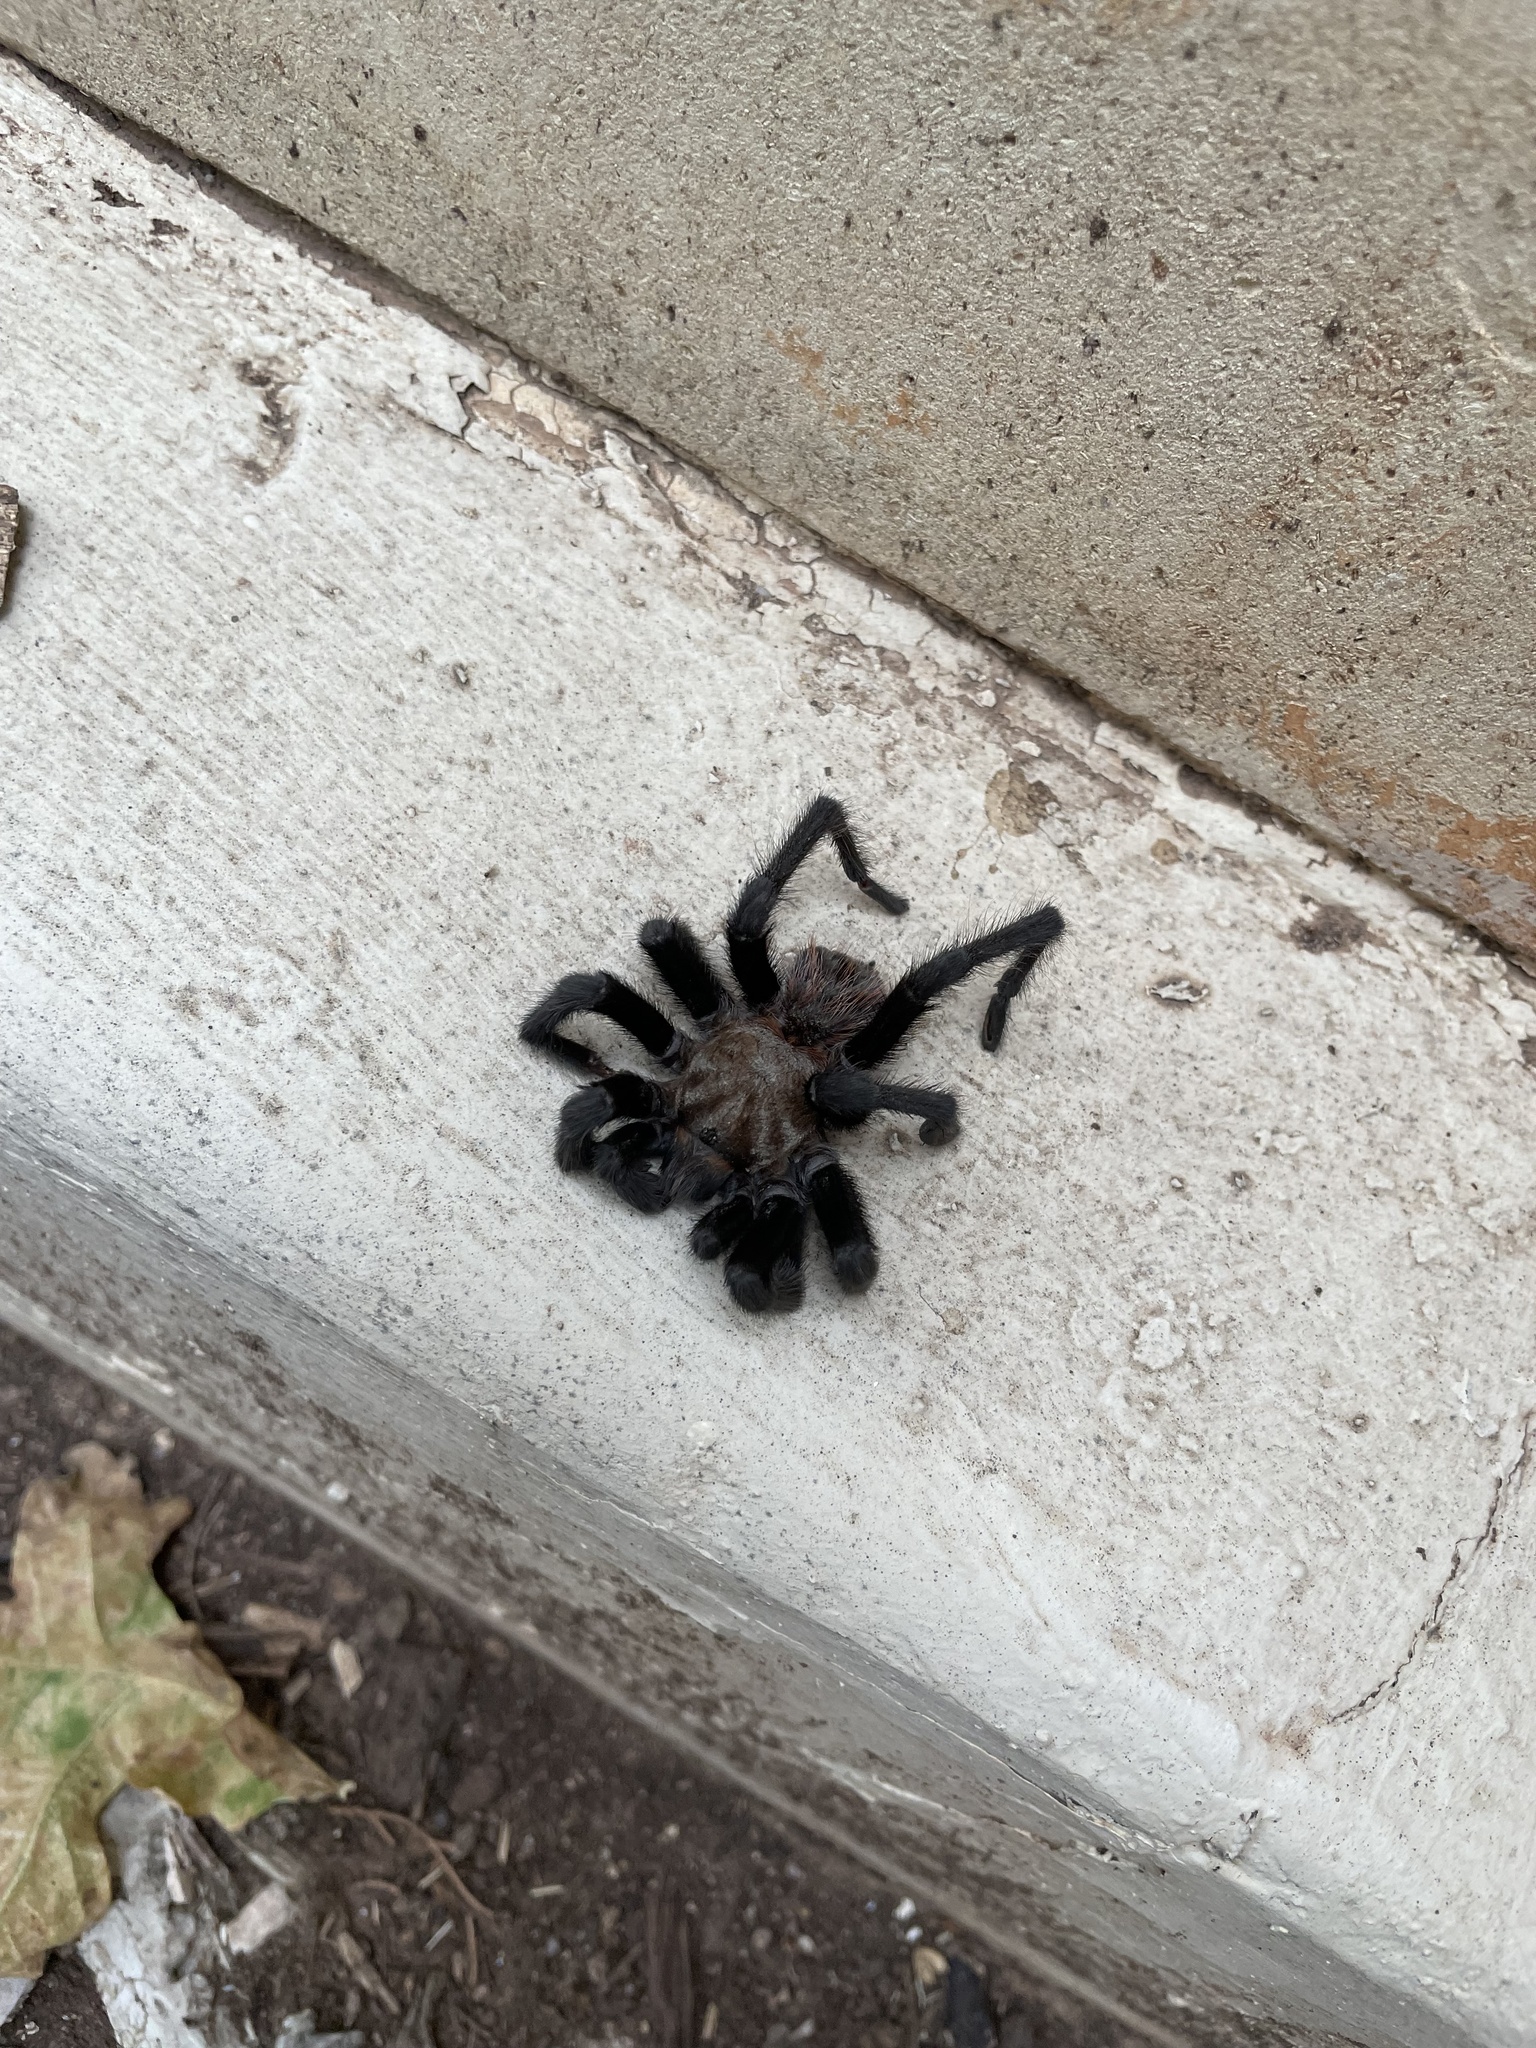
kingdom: Animalia
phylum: Arthropoda
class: Arachnida
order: Araneae
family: Theraphosidae
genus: Aphonopelma
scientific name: Aphonopelma hentzi
